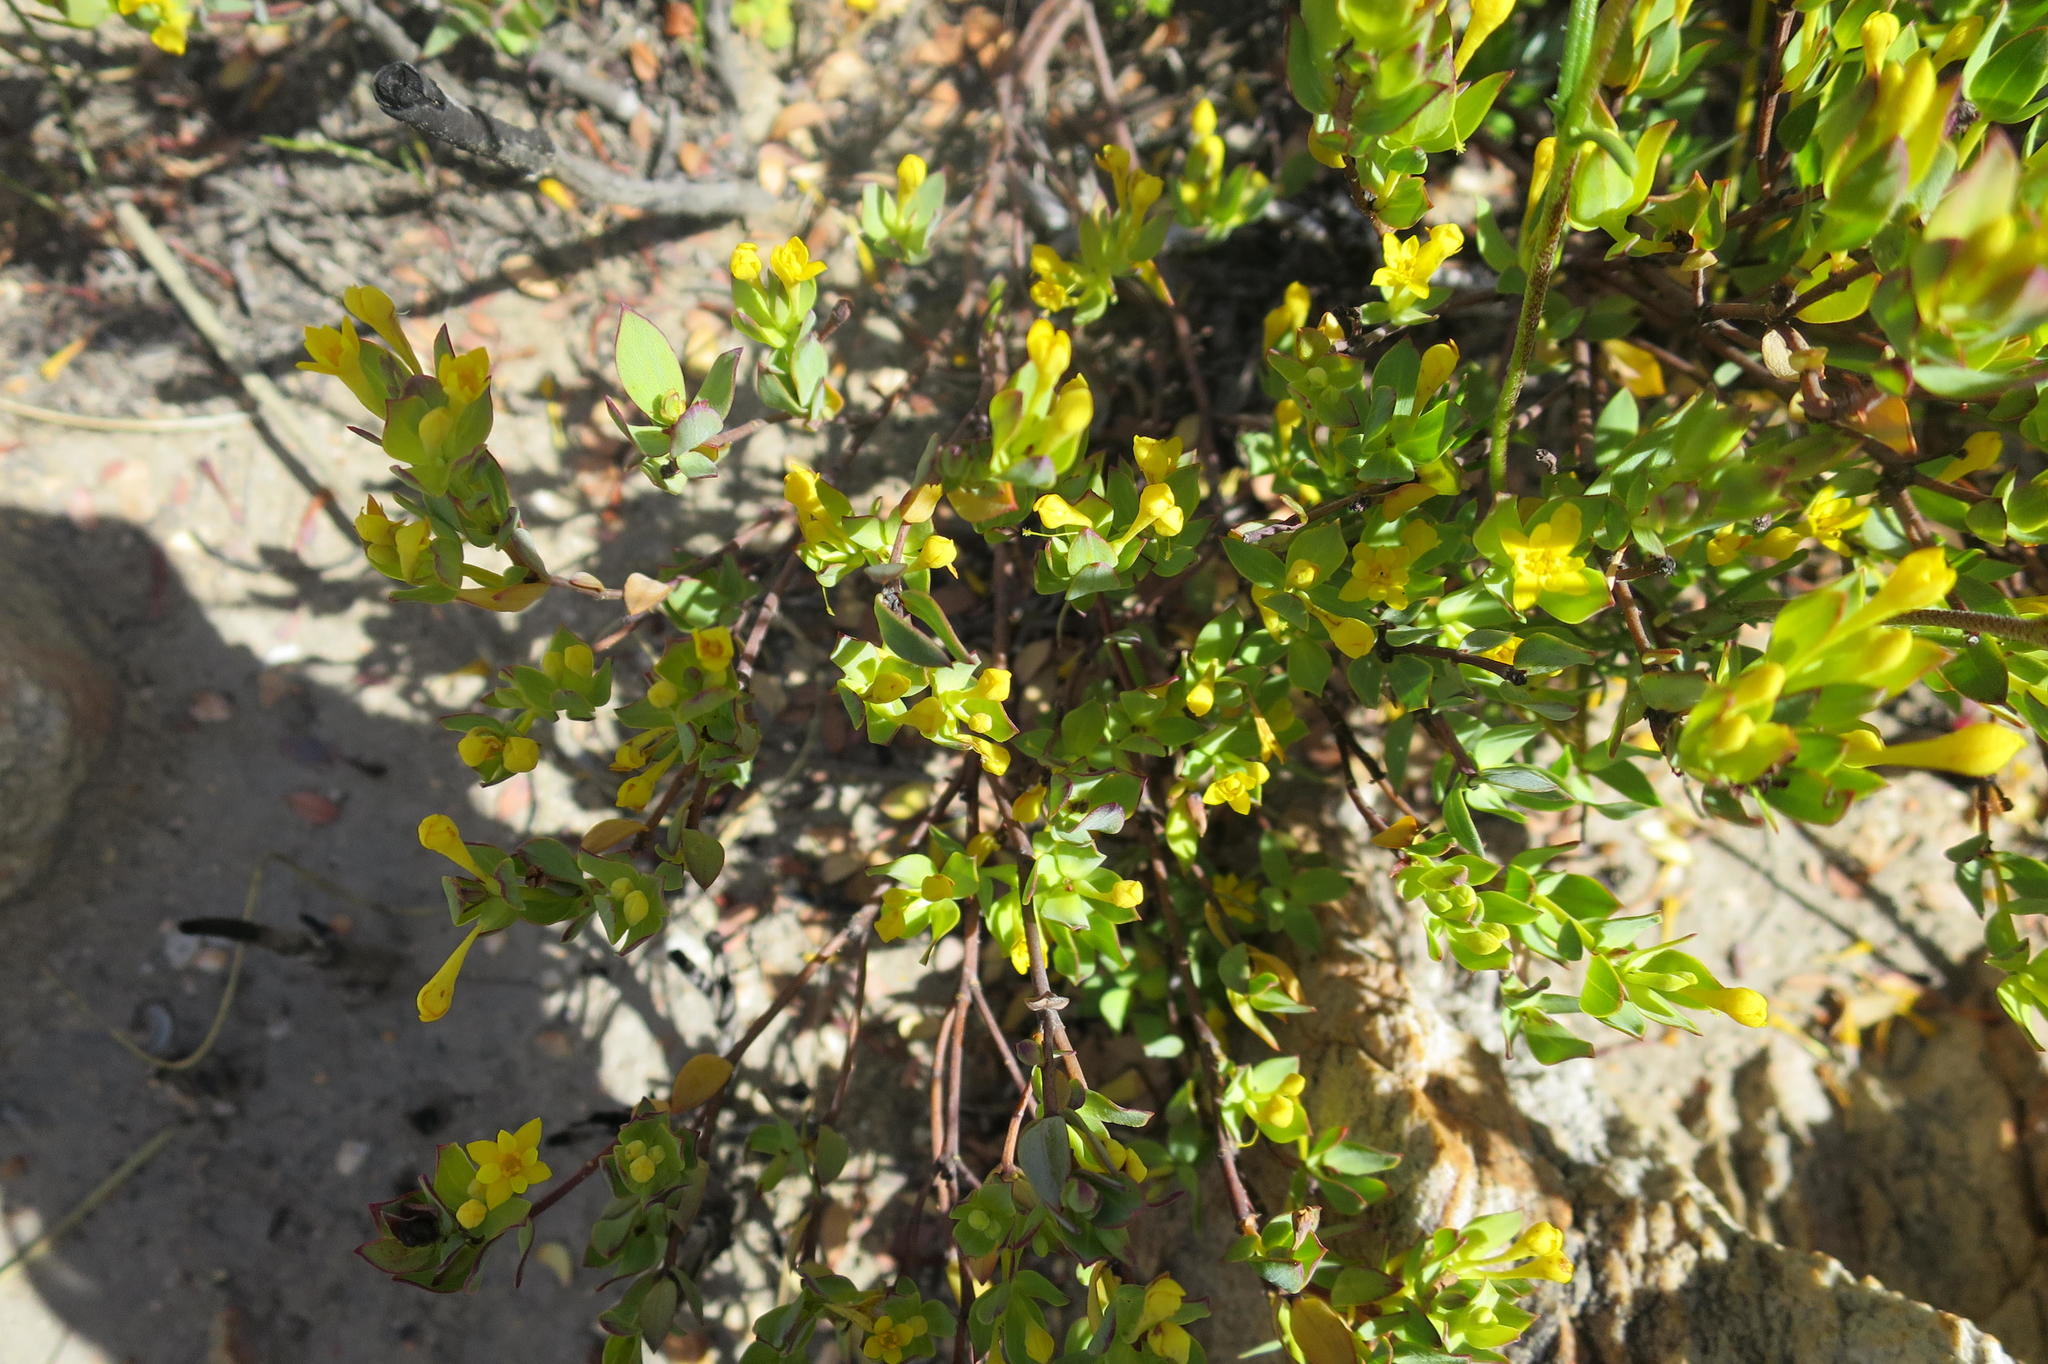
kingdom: Plantae
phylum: Tracheophyta
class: Magnoliopsida
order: Malvales
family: Thymelaeaceae
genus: Gnidia
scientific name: Gnidia juniperifolia
